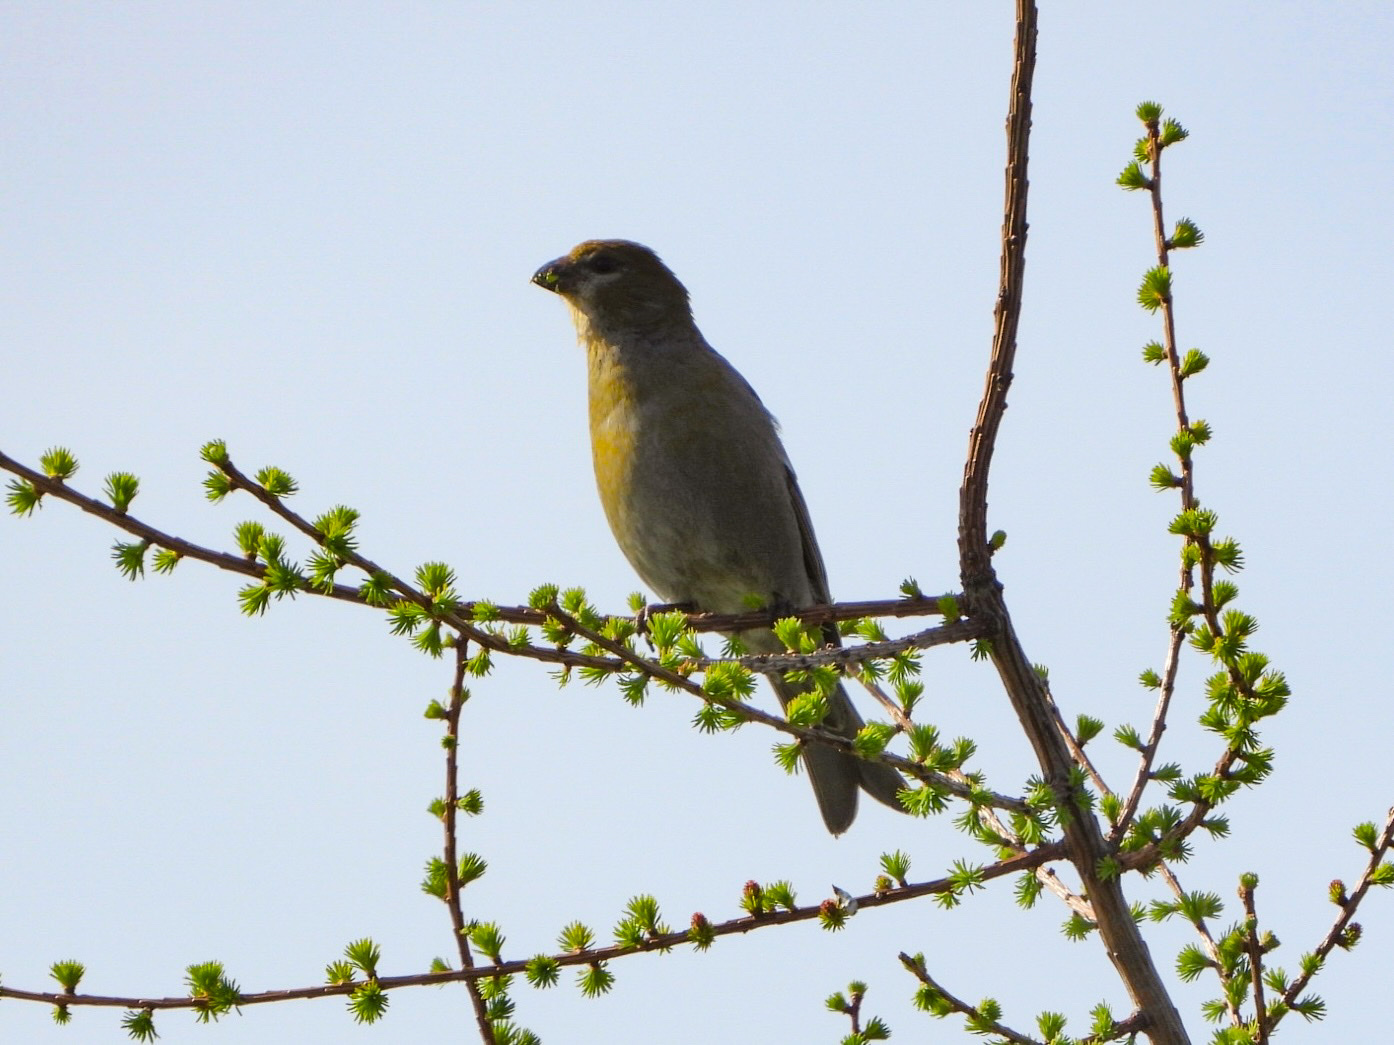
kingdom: Animalia
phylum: Chordata
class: Aves
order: Passeriformes
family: Fringillidae
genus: Pinicola
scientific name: Pinicola enucleator
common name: Pine grosbeak
